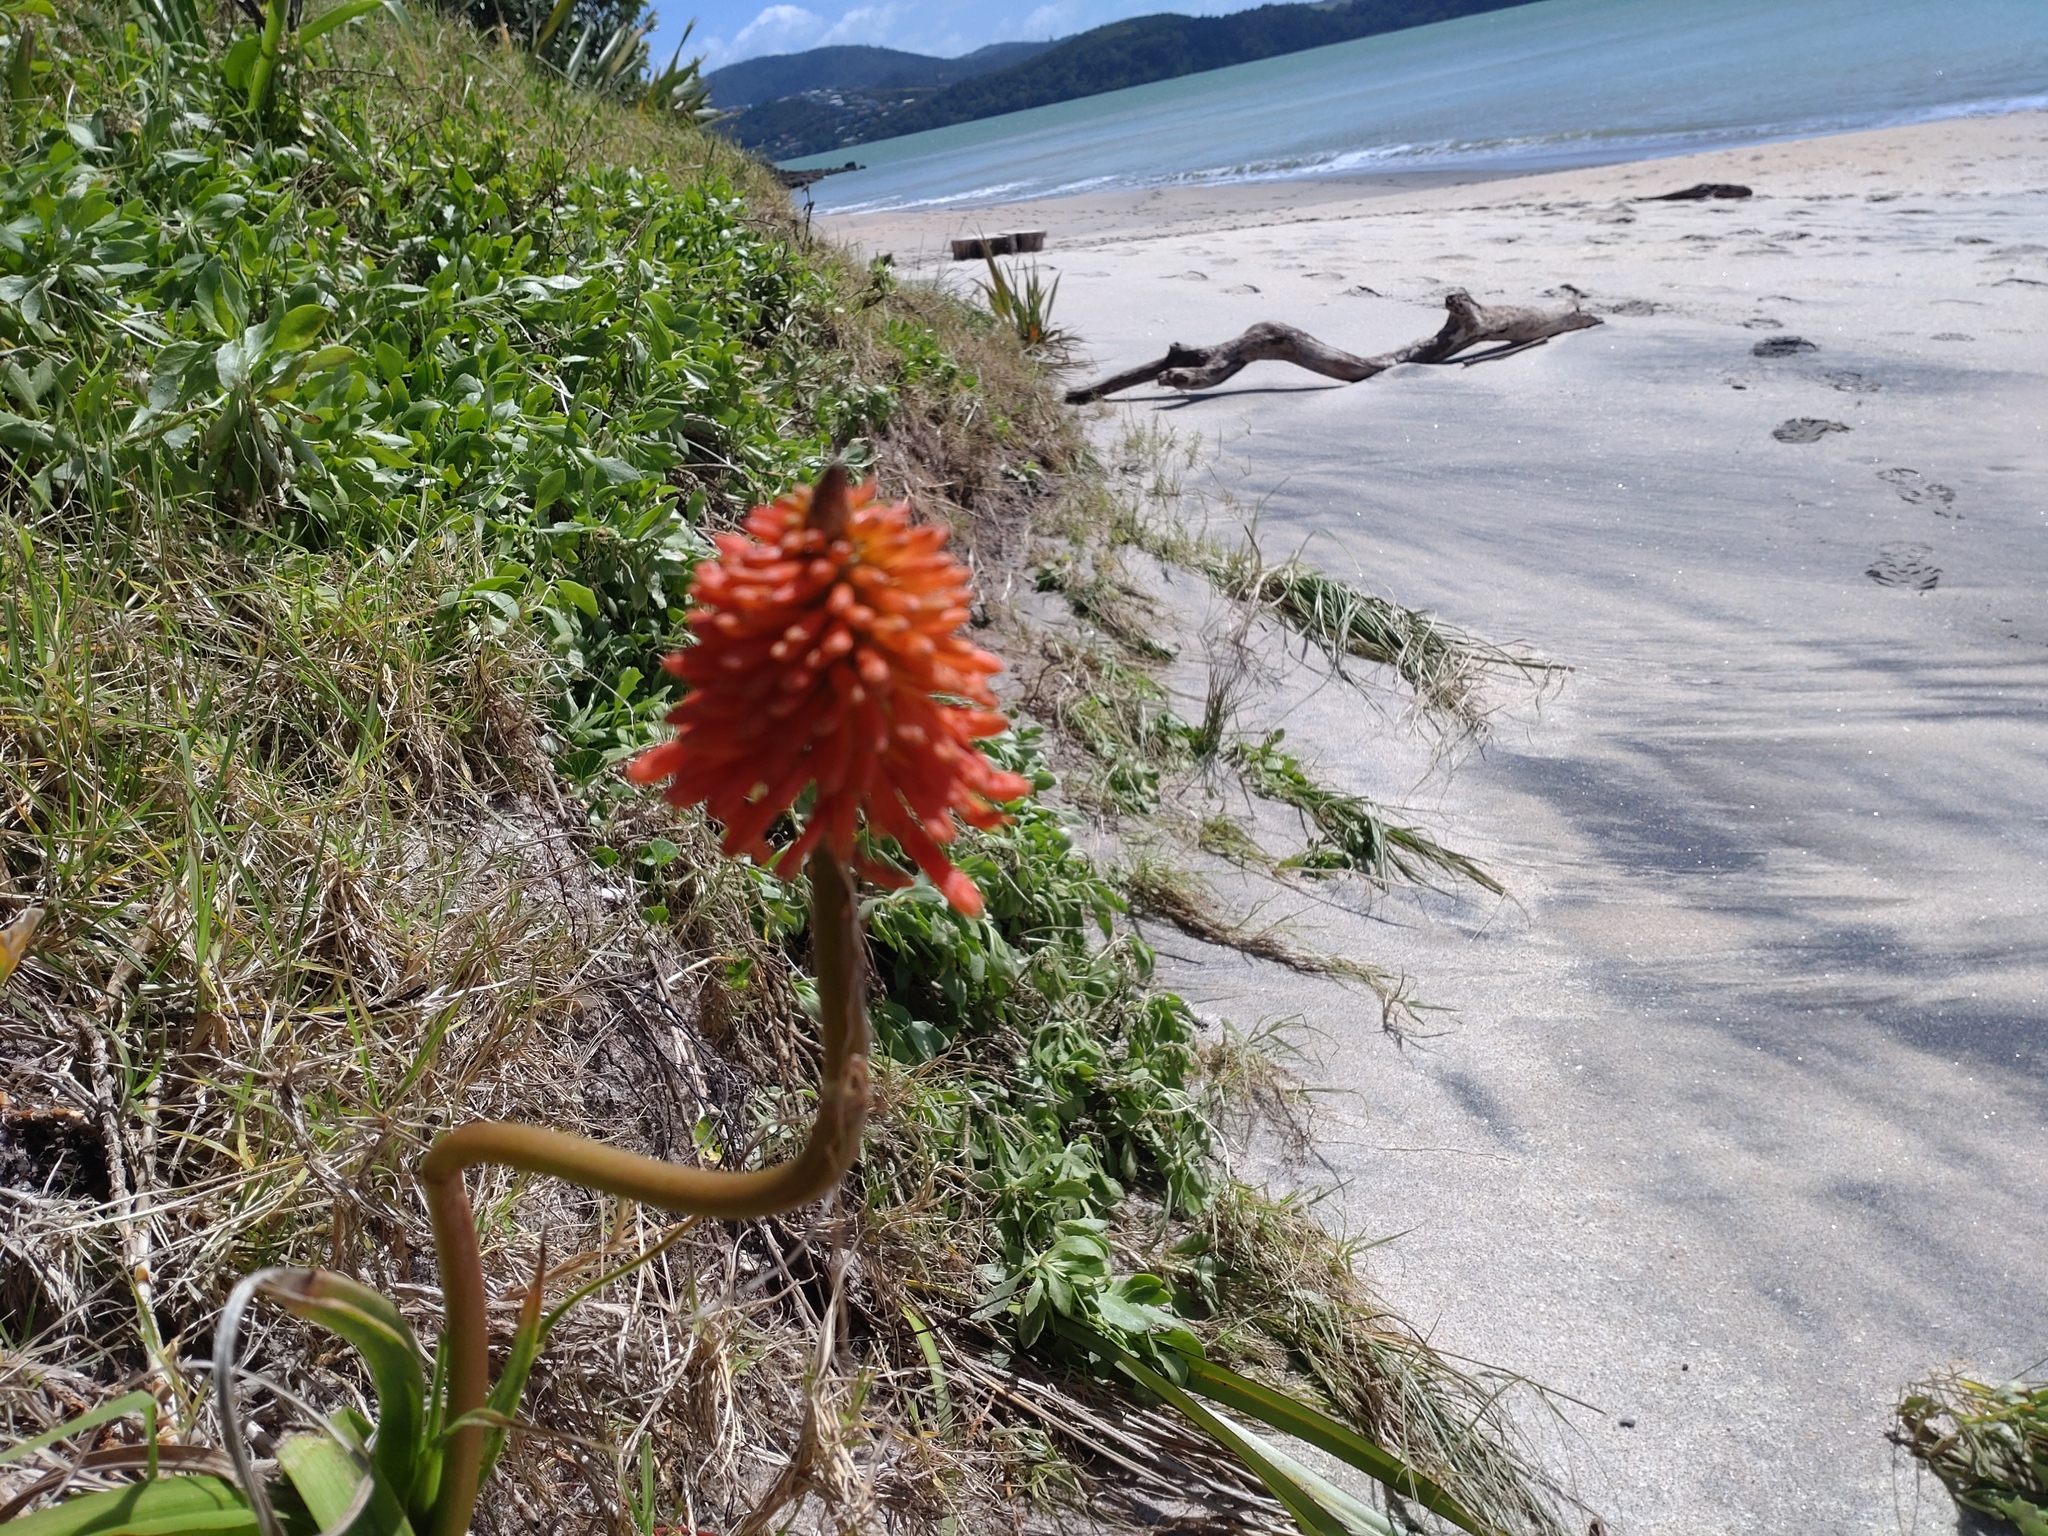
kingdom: Plantae
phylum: Tracheophyta
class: Liliopsida
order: Asparagales
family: Asphodelaceae
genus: Kniphofia
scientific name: Kniphofia uvaria
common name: Red-hot-poker
